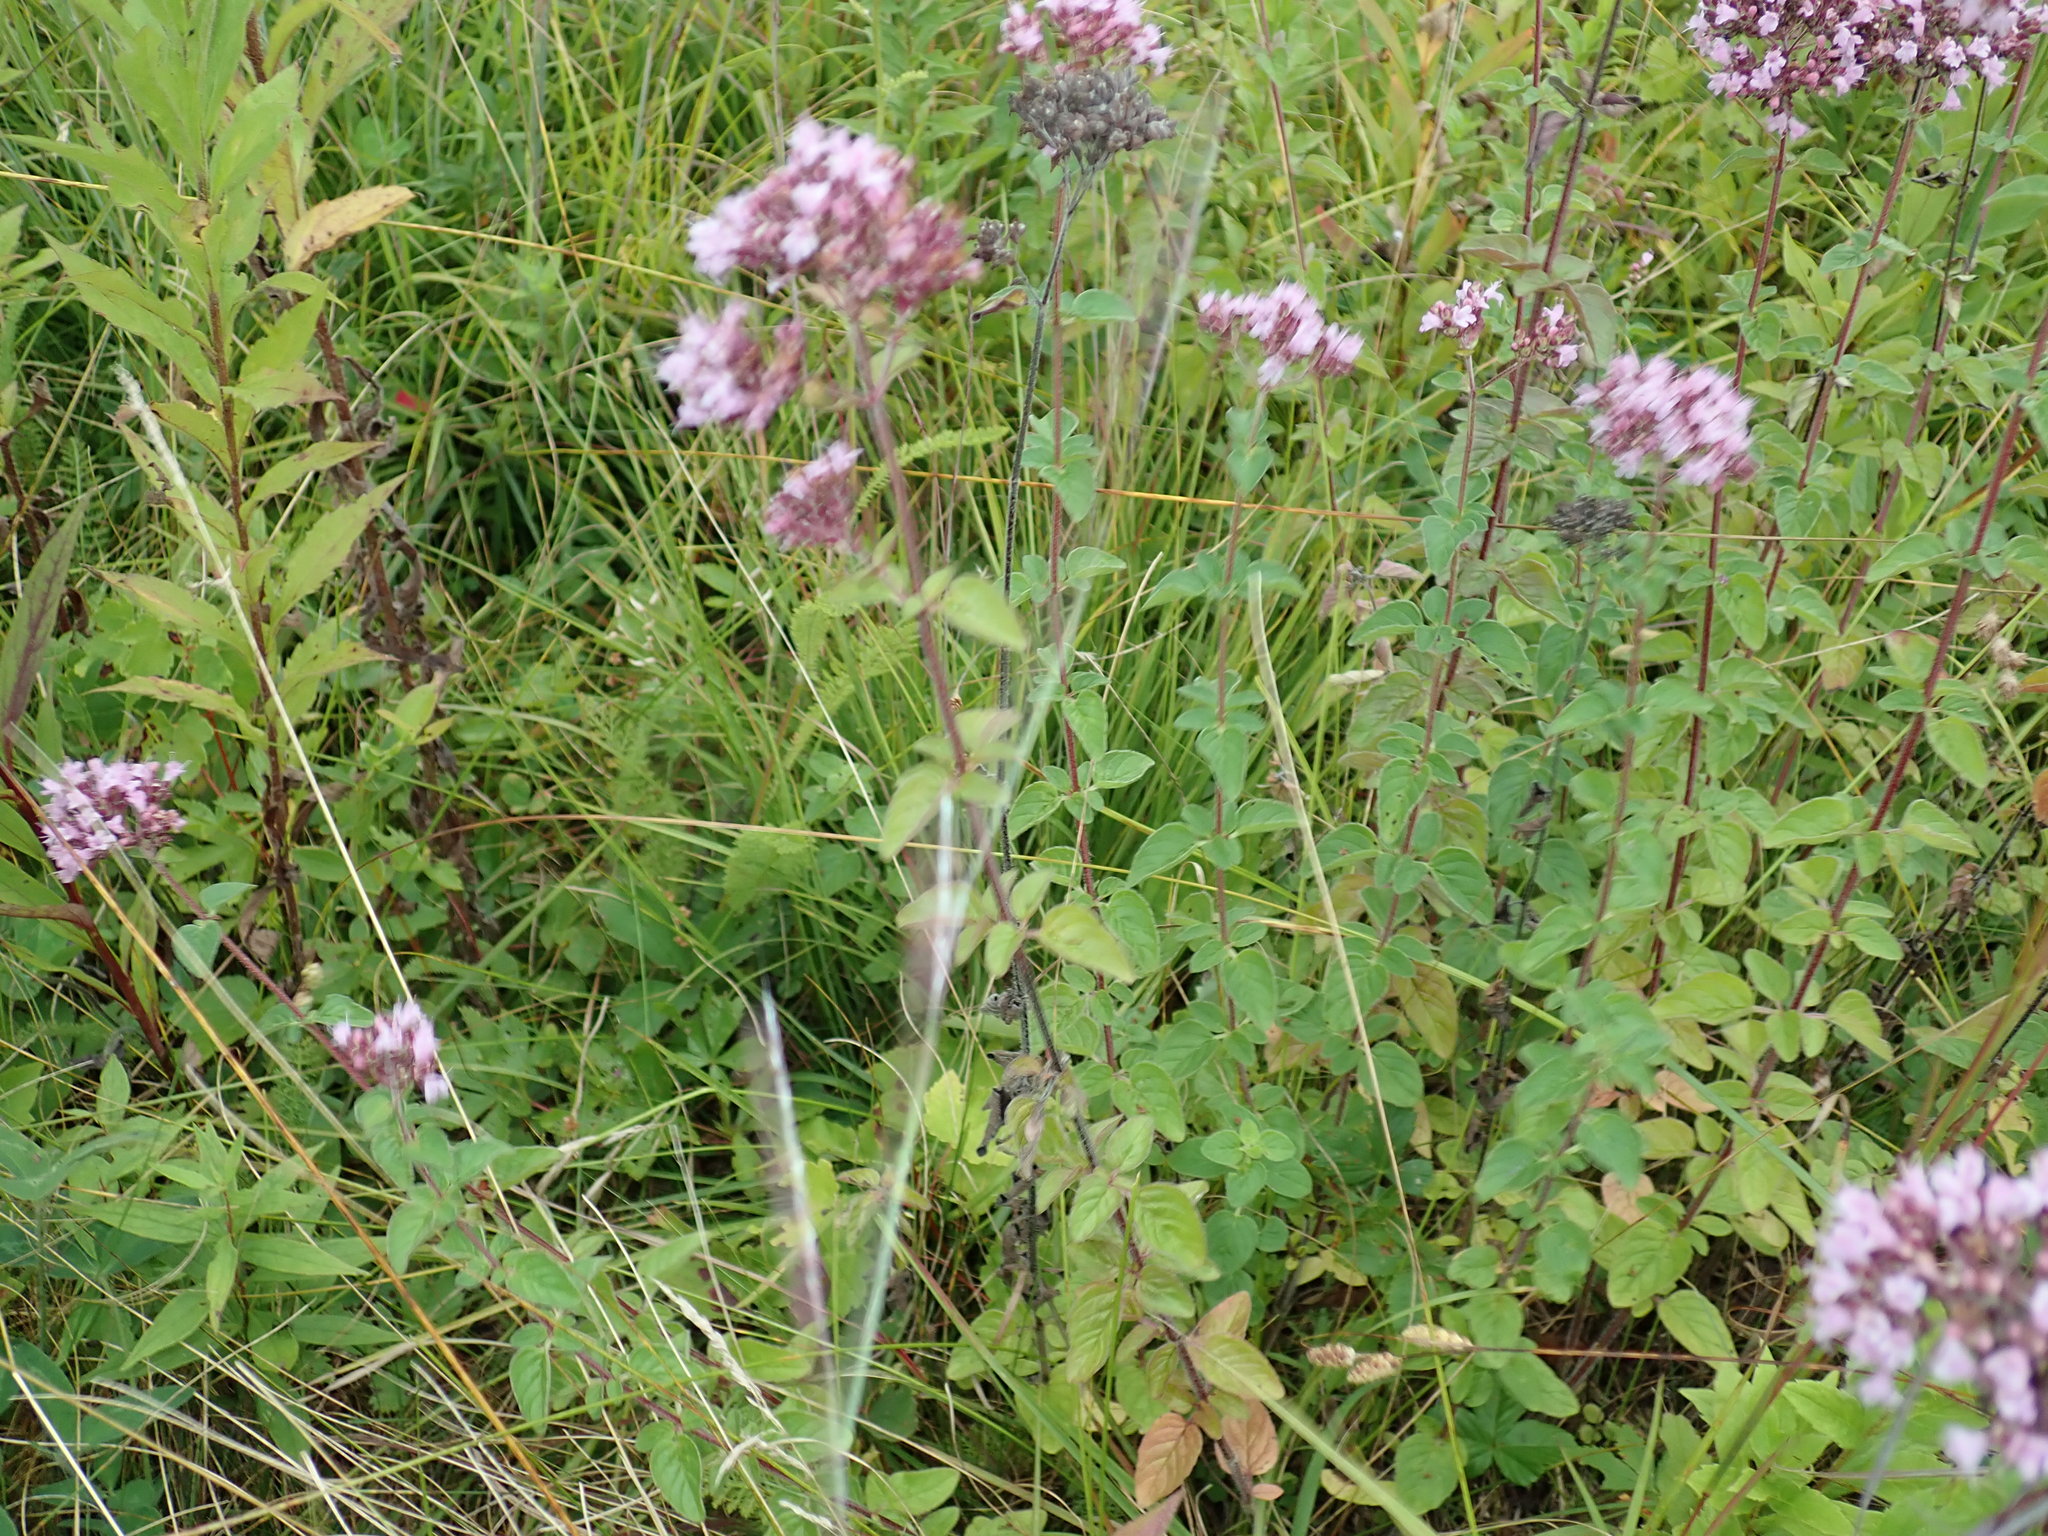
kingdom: Plantae
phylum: Tracheophyta
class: Magnoliopsida
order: Lamiales
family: Lamiaceae
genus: Origanum
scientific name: Origanum vulgare
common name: Wild marjoram
